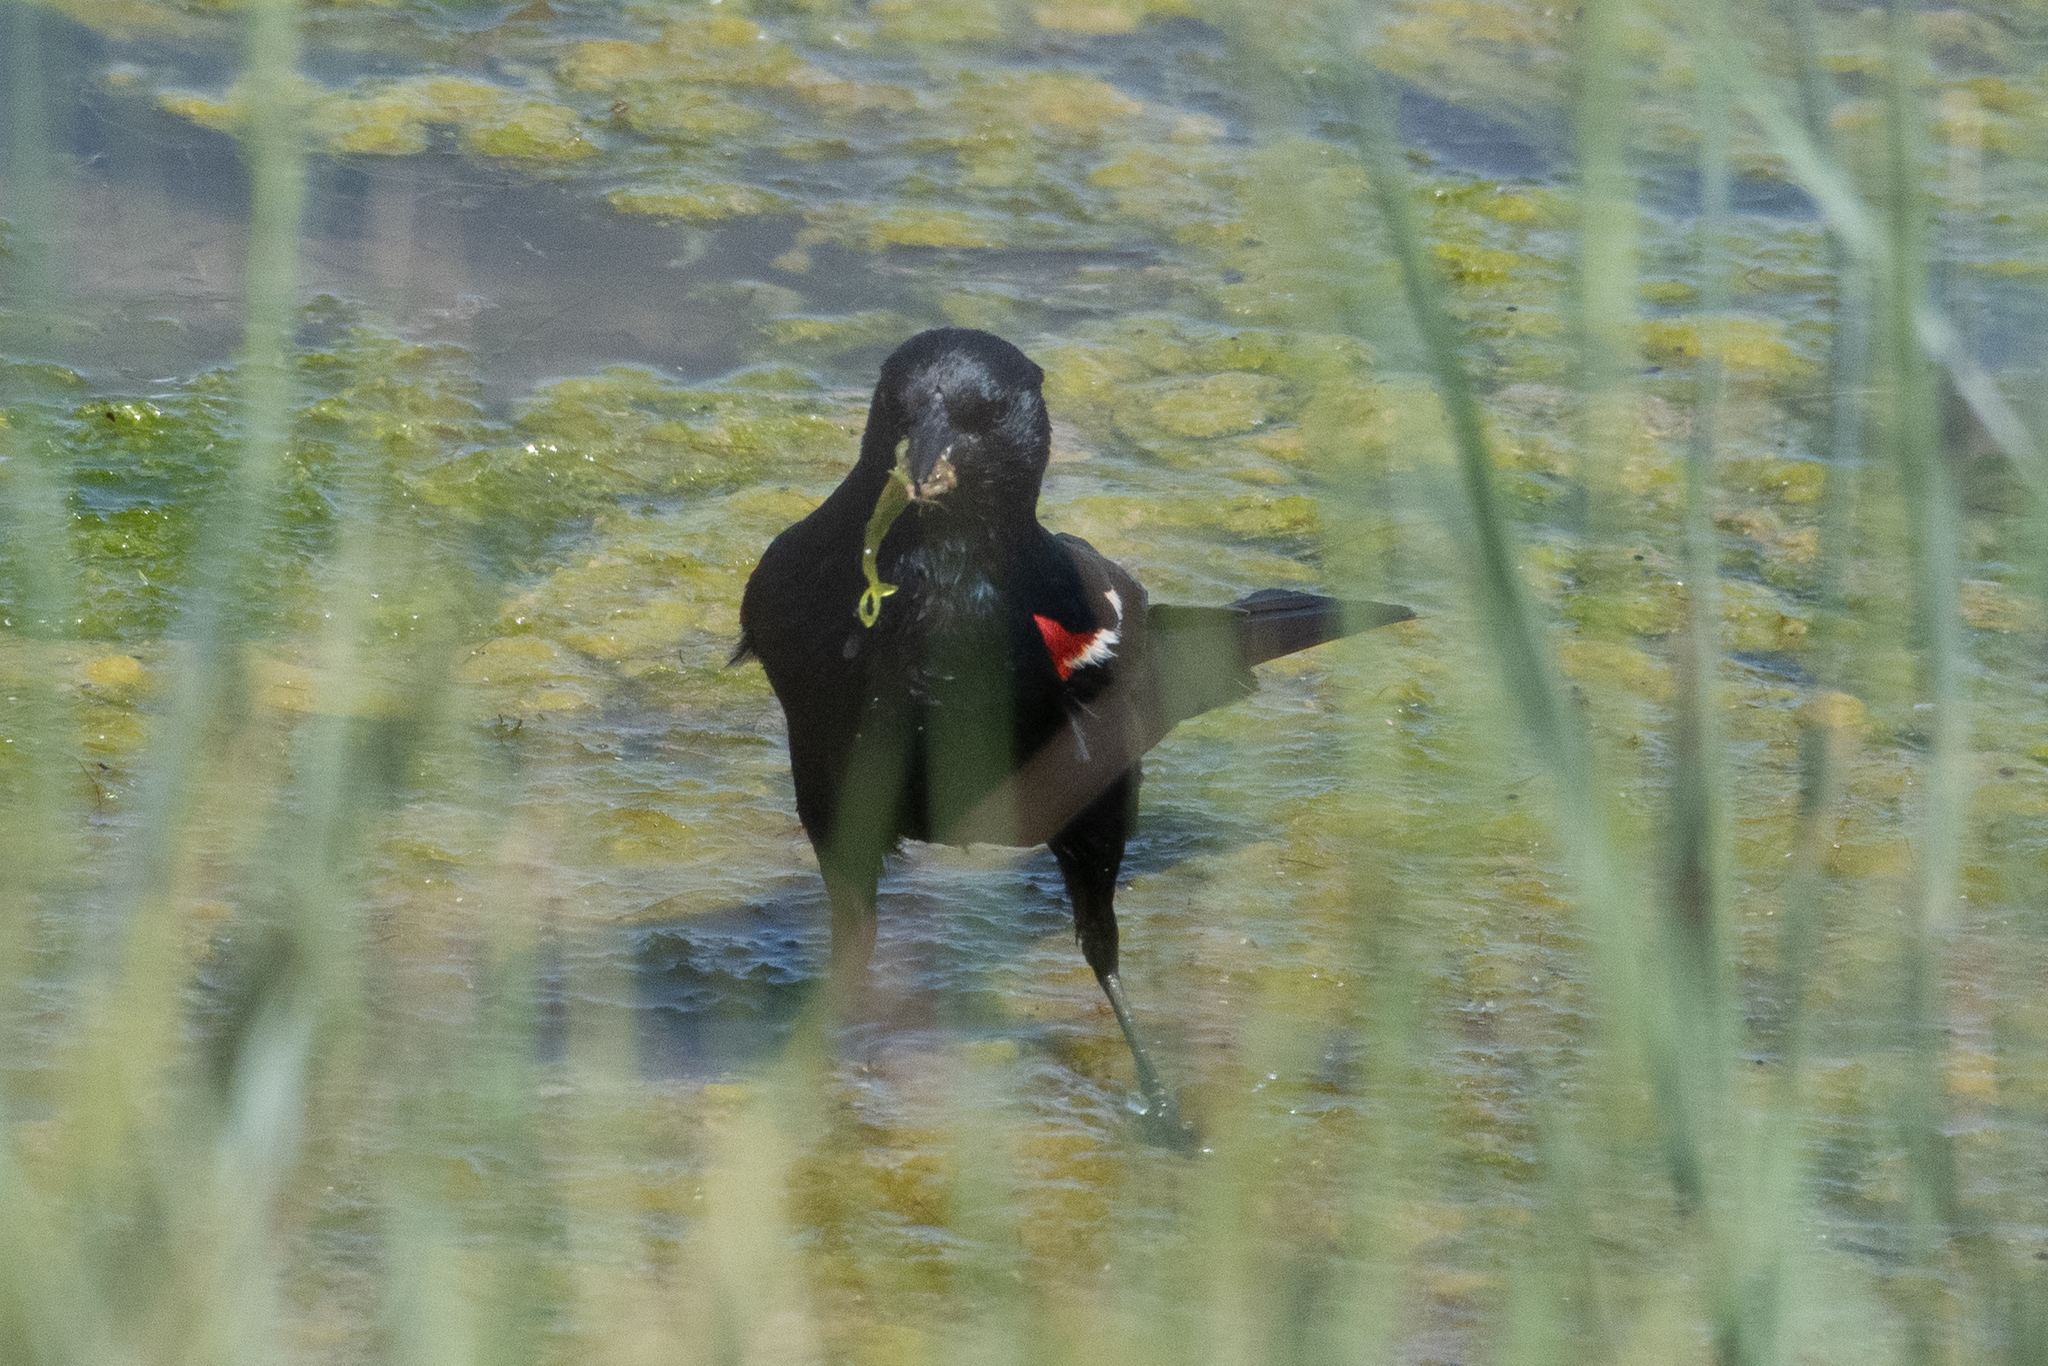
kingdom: Animalia
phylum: Chordata
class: Aves
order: Passeriformes
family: Icteridae
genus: Agelaius
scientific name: Agelaius tricolor
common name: Tricolored blackbird
